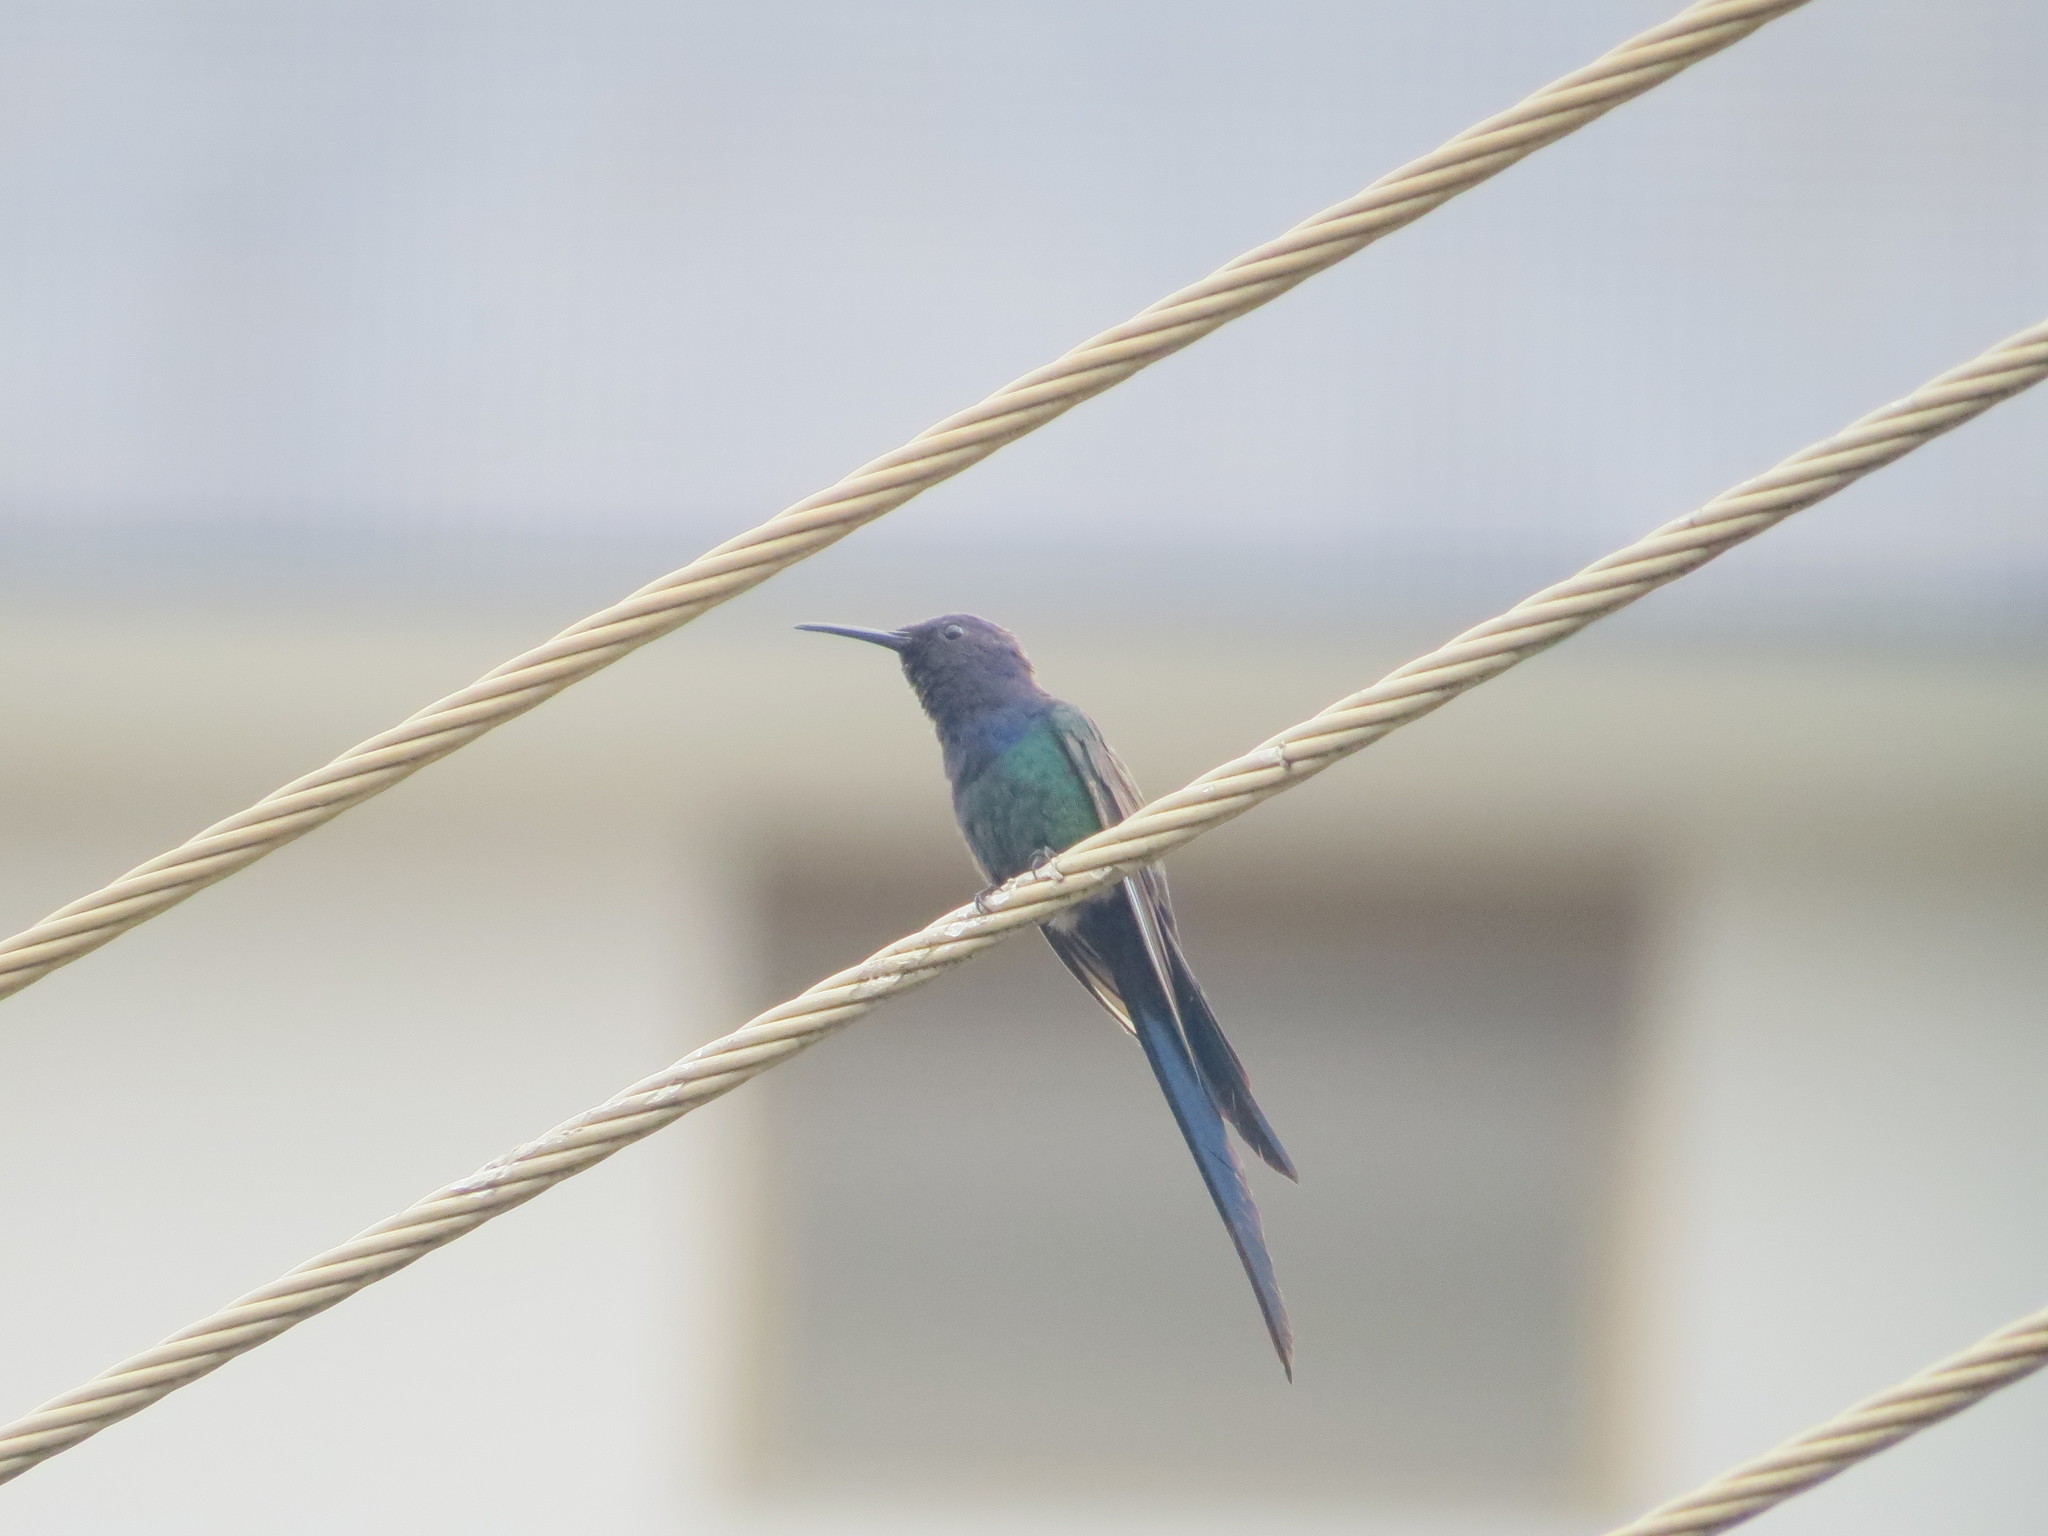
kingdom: Animalia
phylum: Chordata
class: Aves
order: Apodiformes
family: Trochilidae
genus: Eupetomena
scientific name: Eupetomena macroura
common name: Swallow-tailed hummingbird
